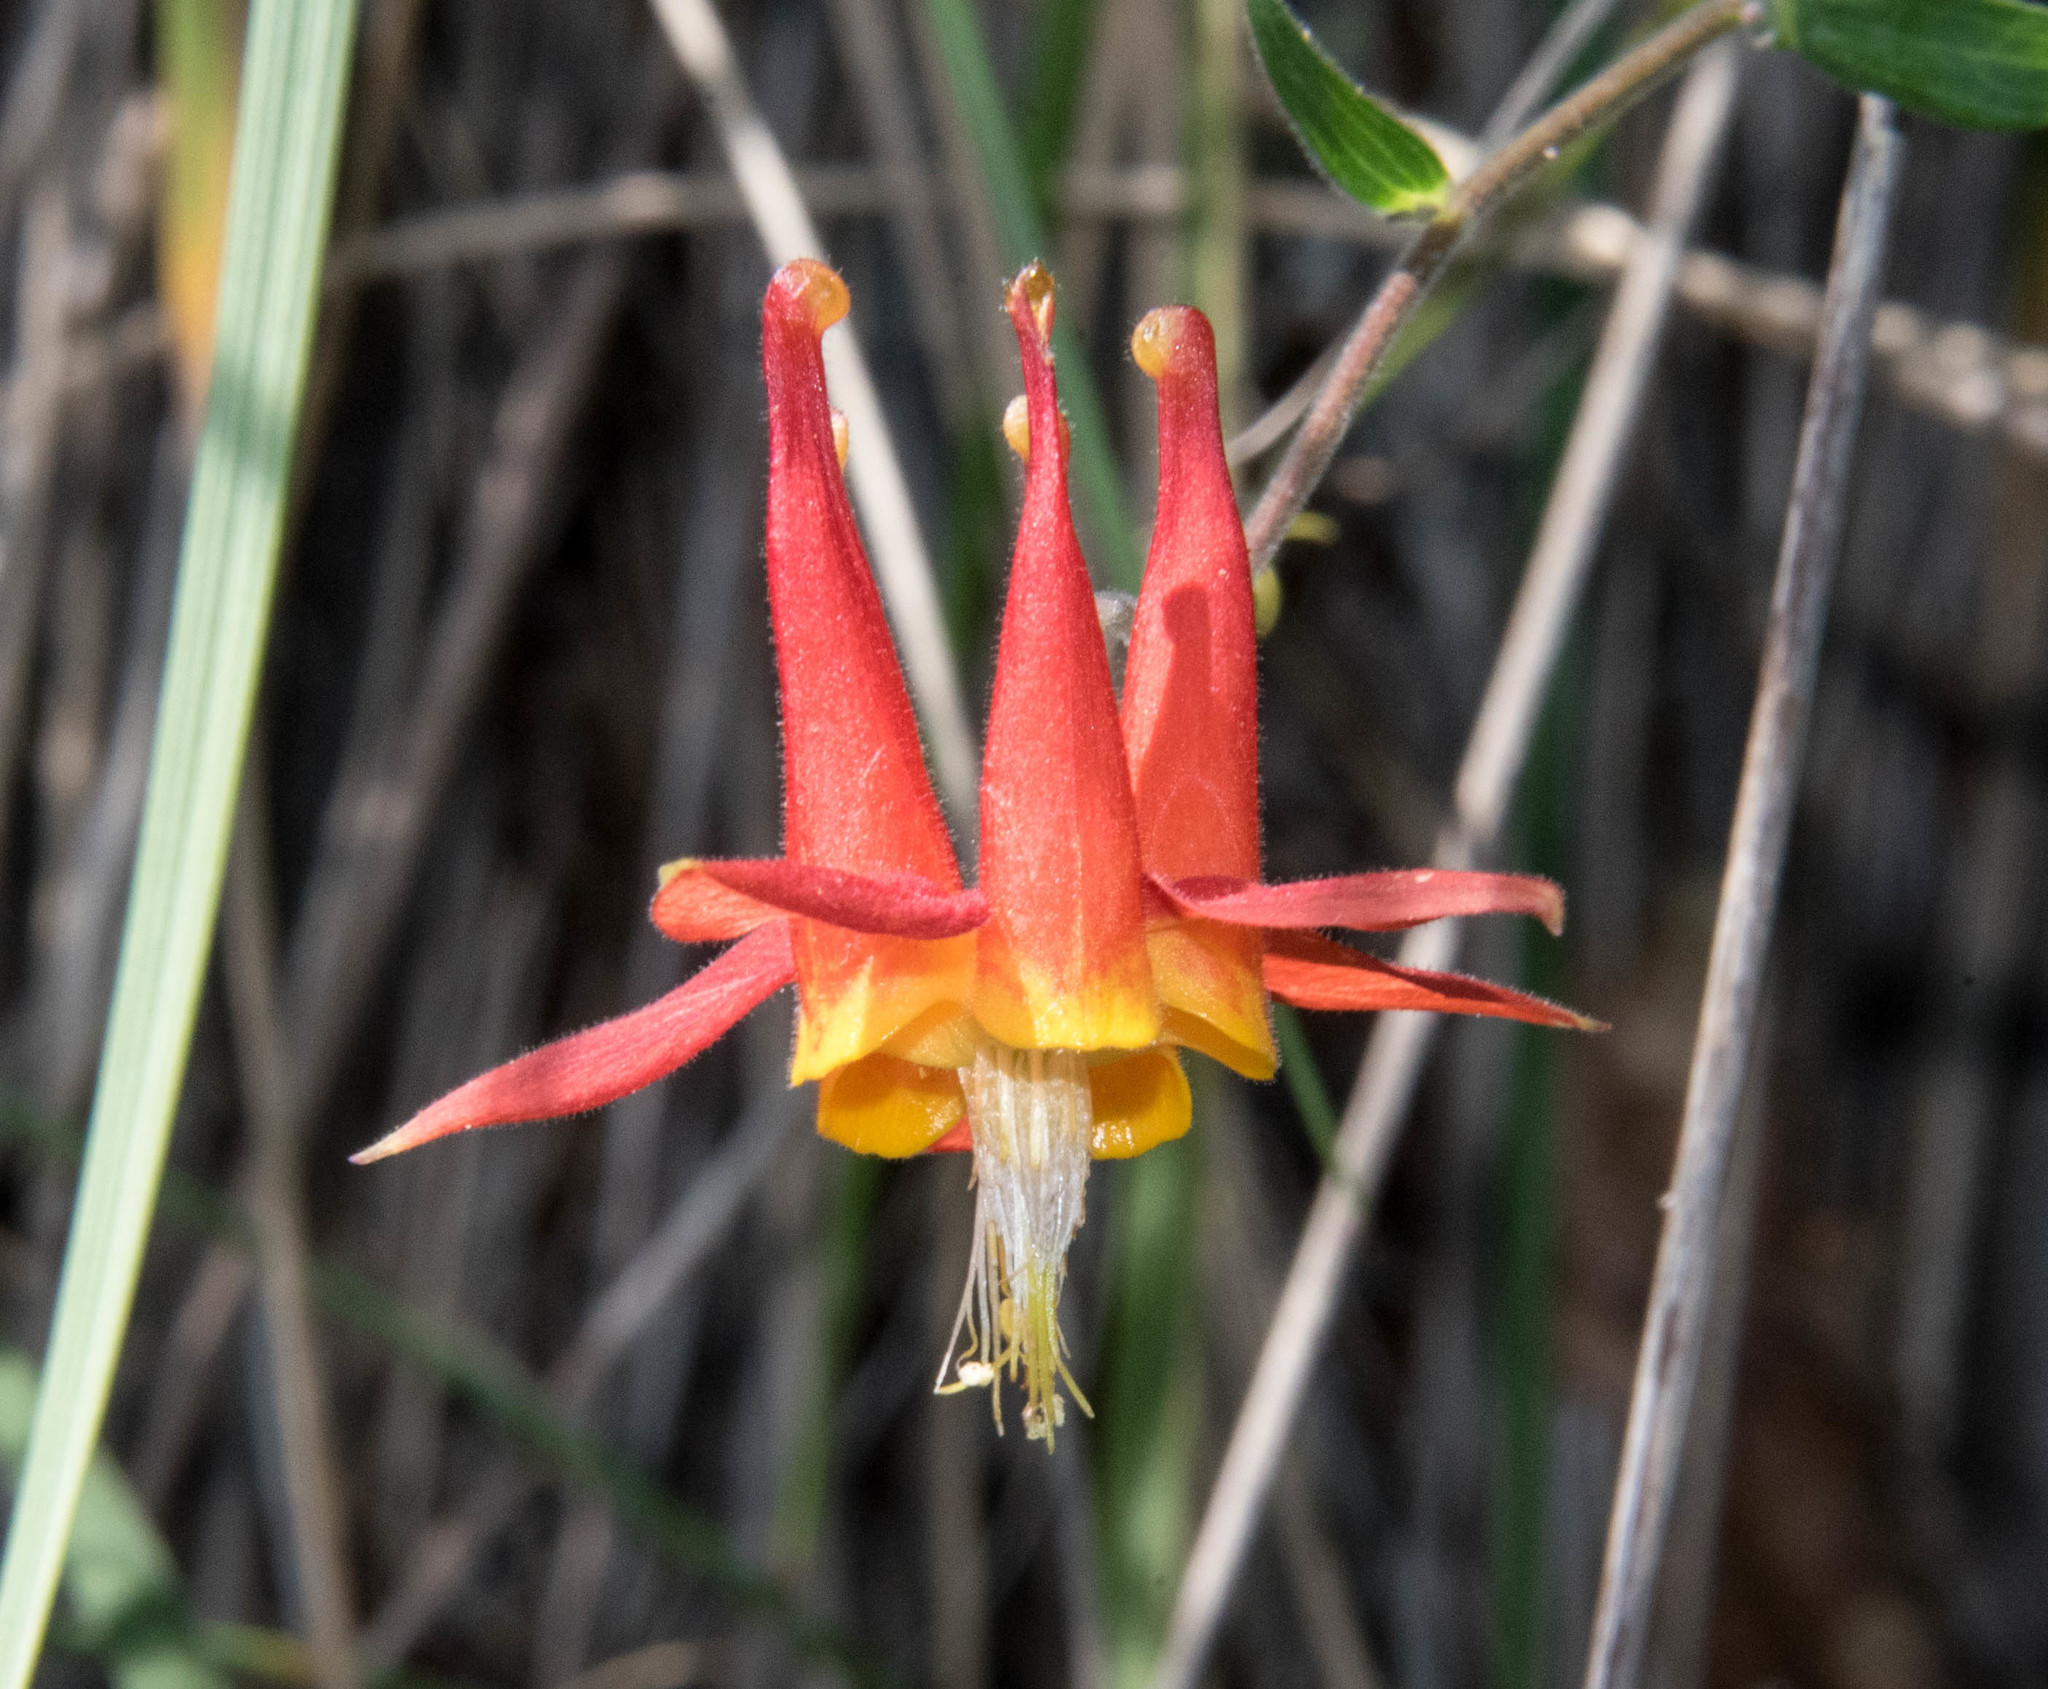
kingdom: Plantae
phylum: Tracheophyta
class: Magnoliopsida
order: Ranunculales
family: Ranunculaceae
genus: Aquilegia
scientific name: Aquilegia formosa
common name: Sitka columbine
